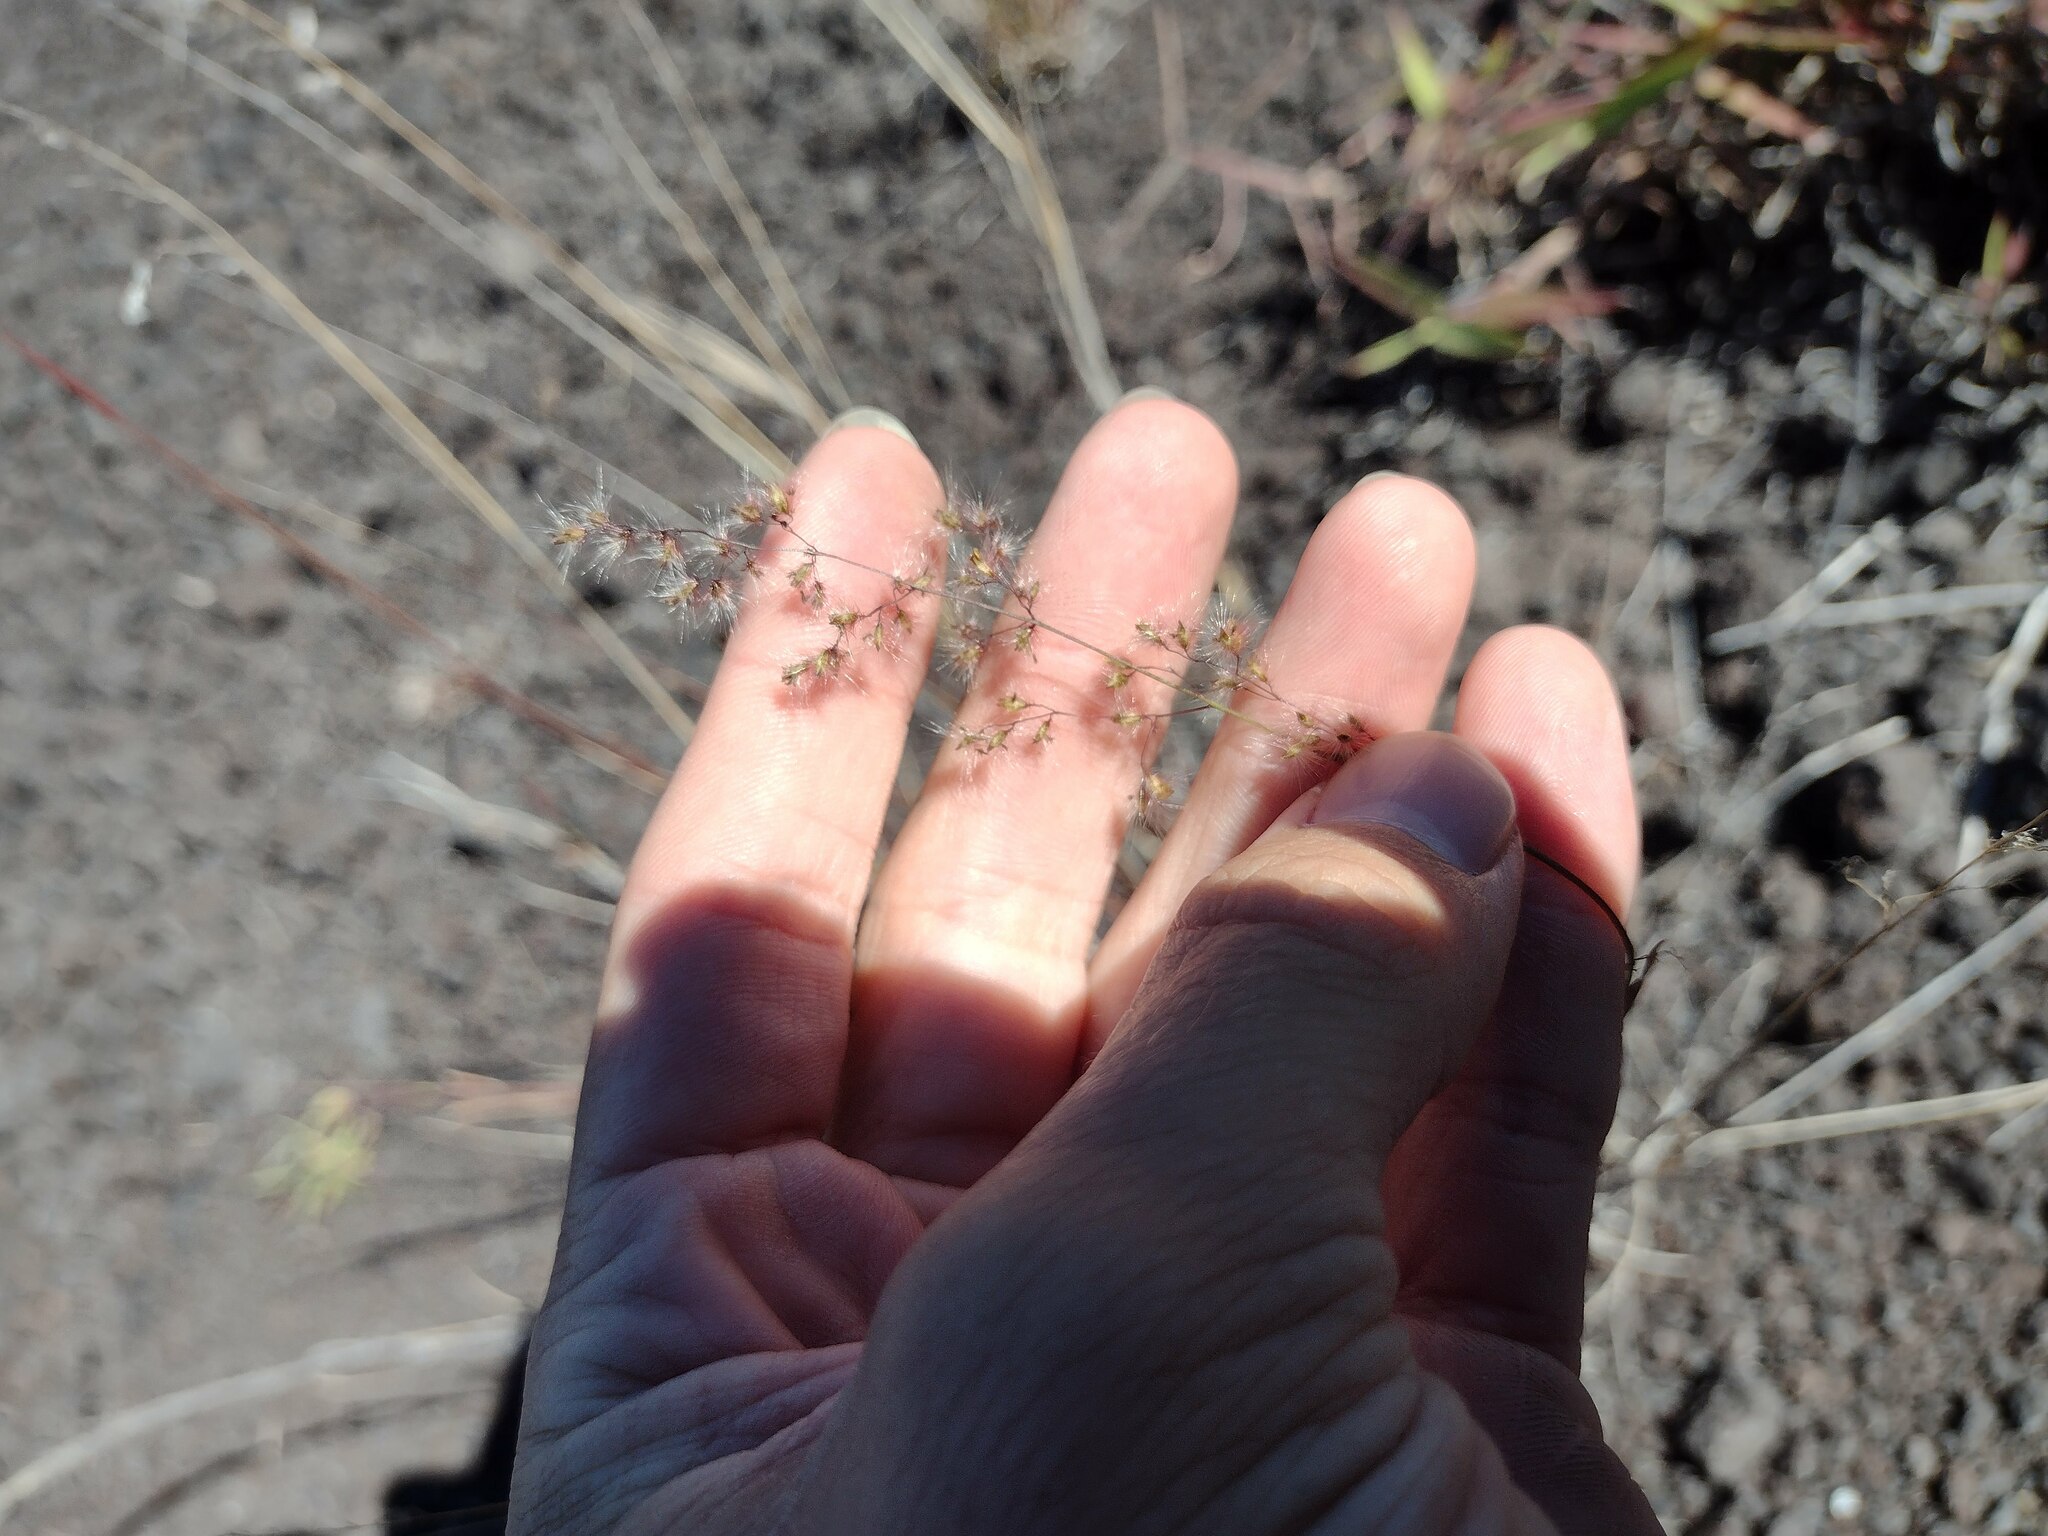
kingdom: Plantae
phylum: Tracheophyta
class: Liliopsida
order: Poales
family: Poaceae
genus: Melinis
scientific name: Melinis repens
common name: Rose natal grass
